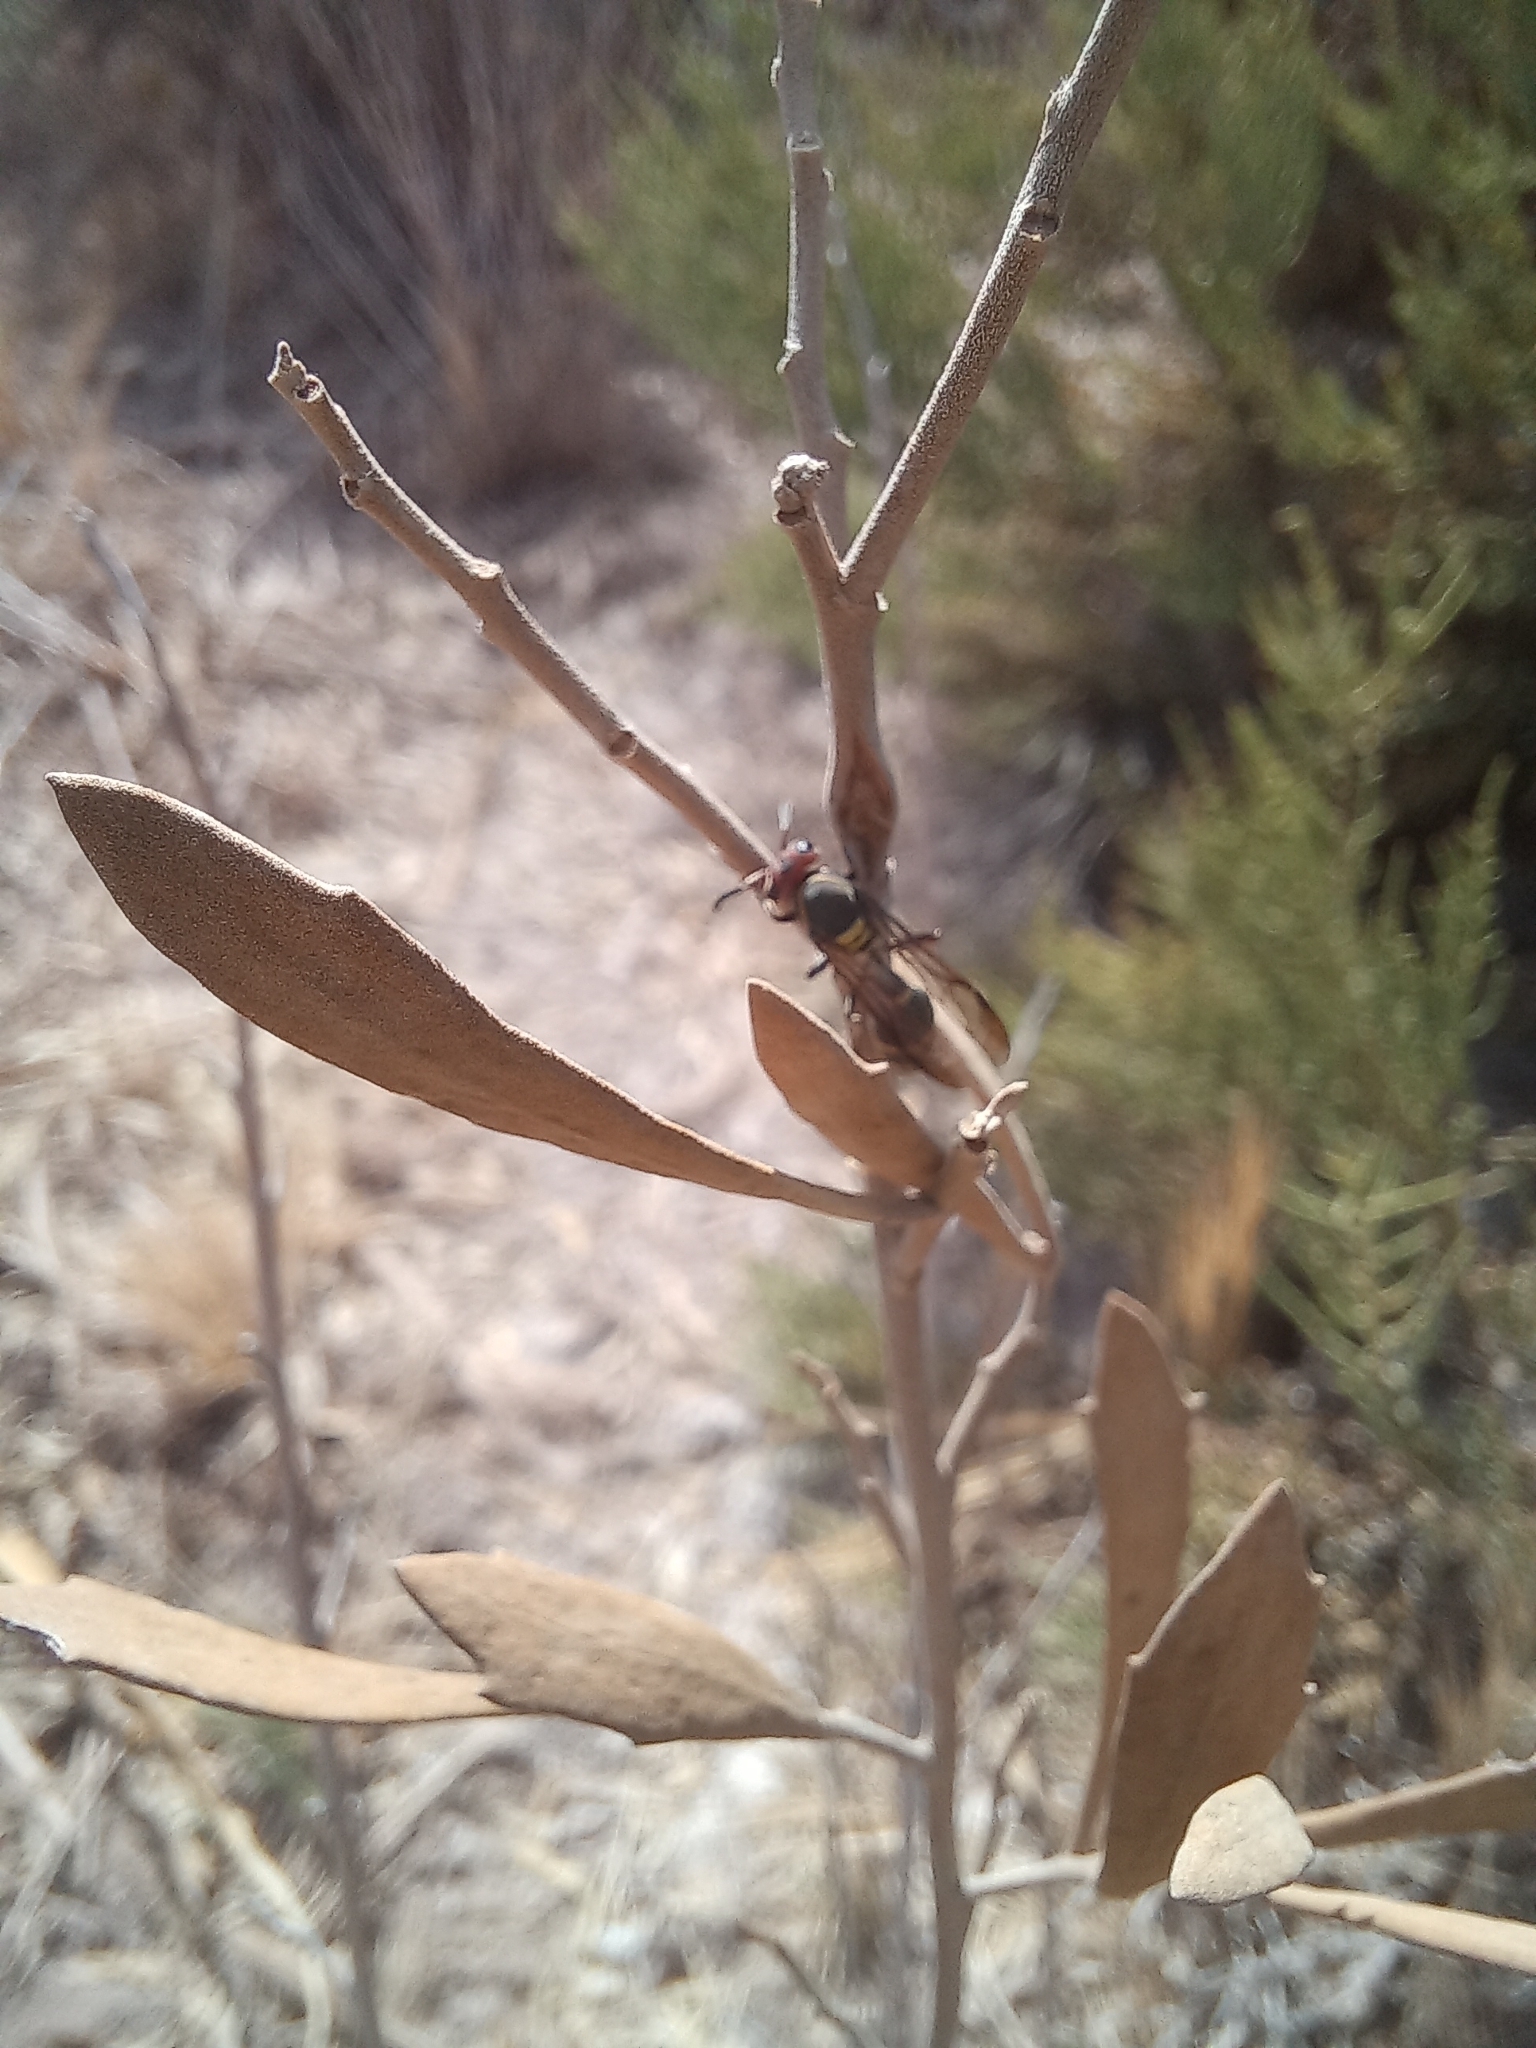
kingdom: Animalia
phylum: Arthropoda
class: Insecta
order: Hymenoptera
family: Eumenidae
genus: Polybia
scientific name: Polybia ruficeps
